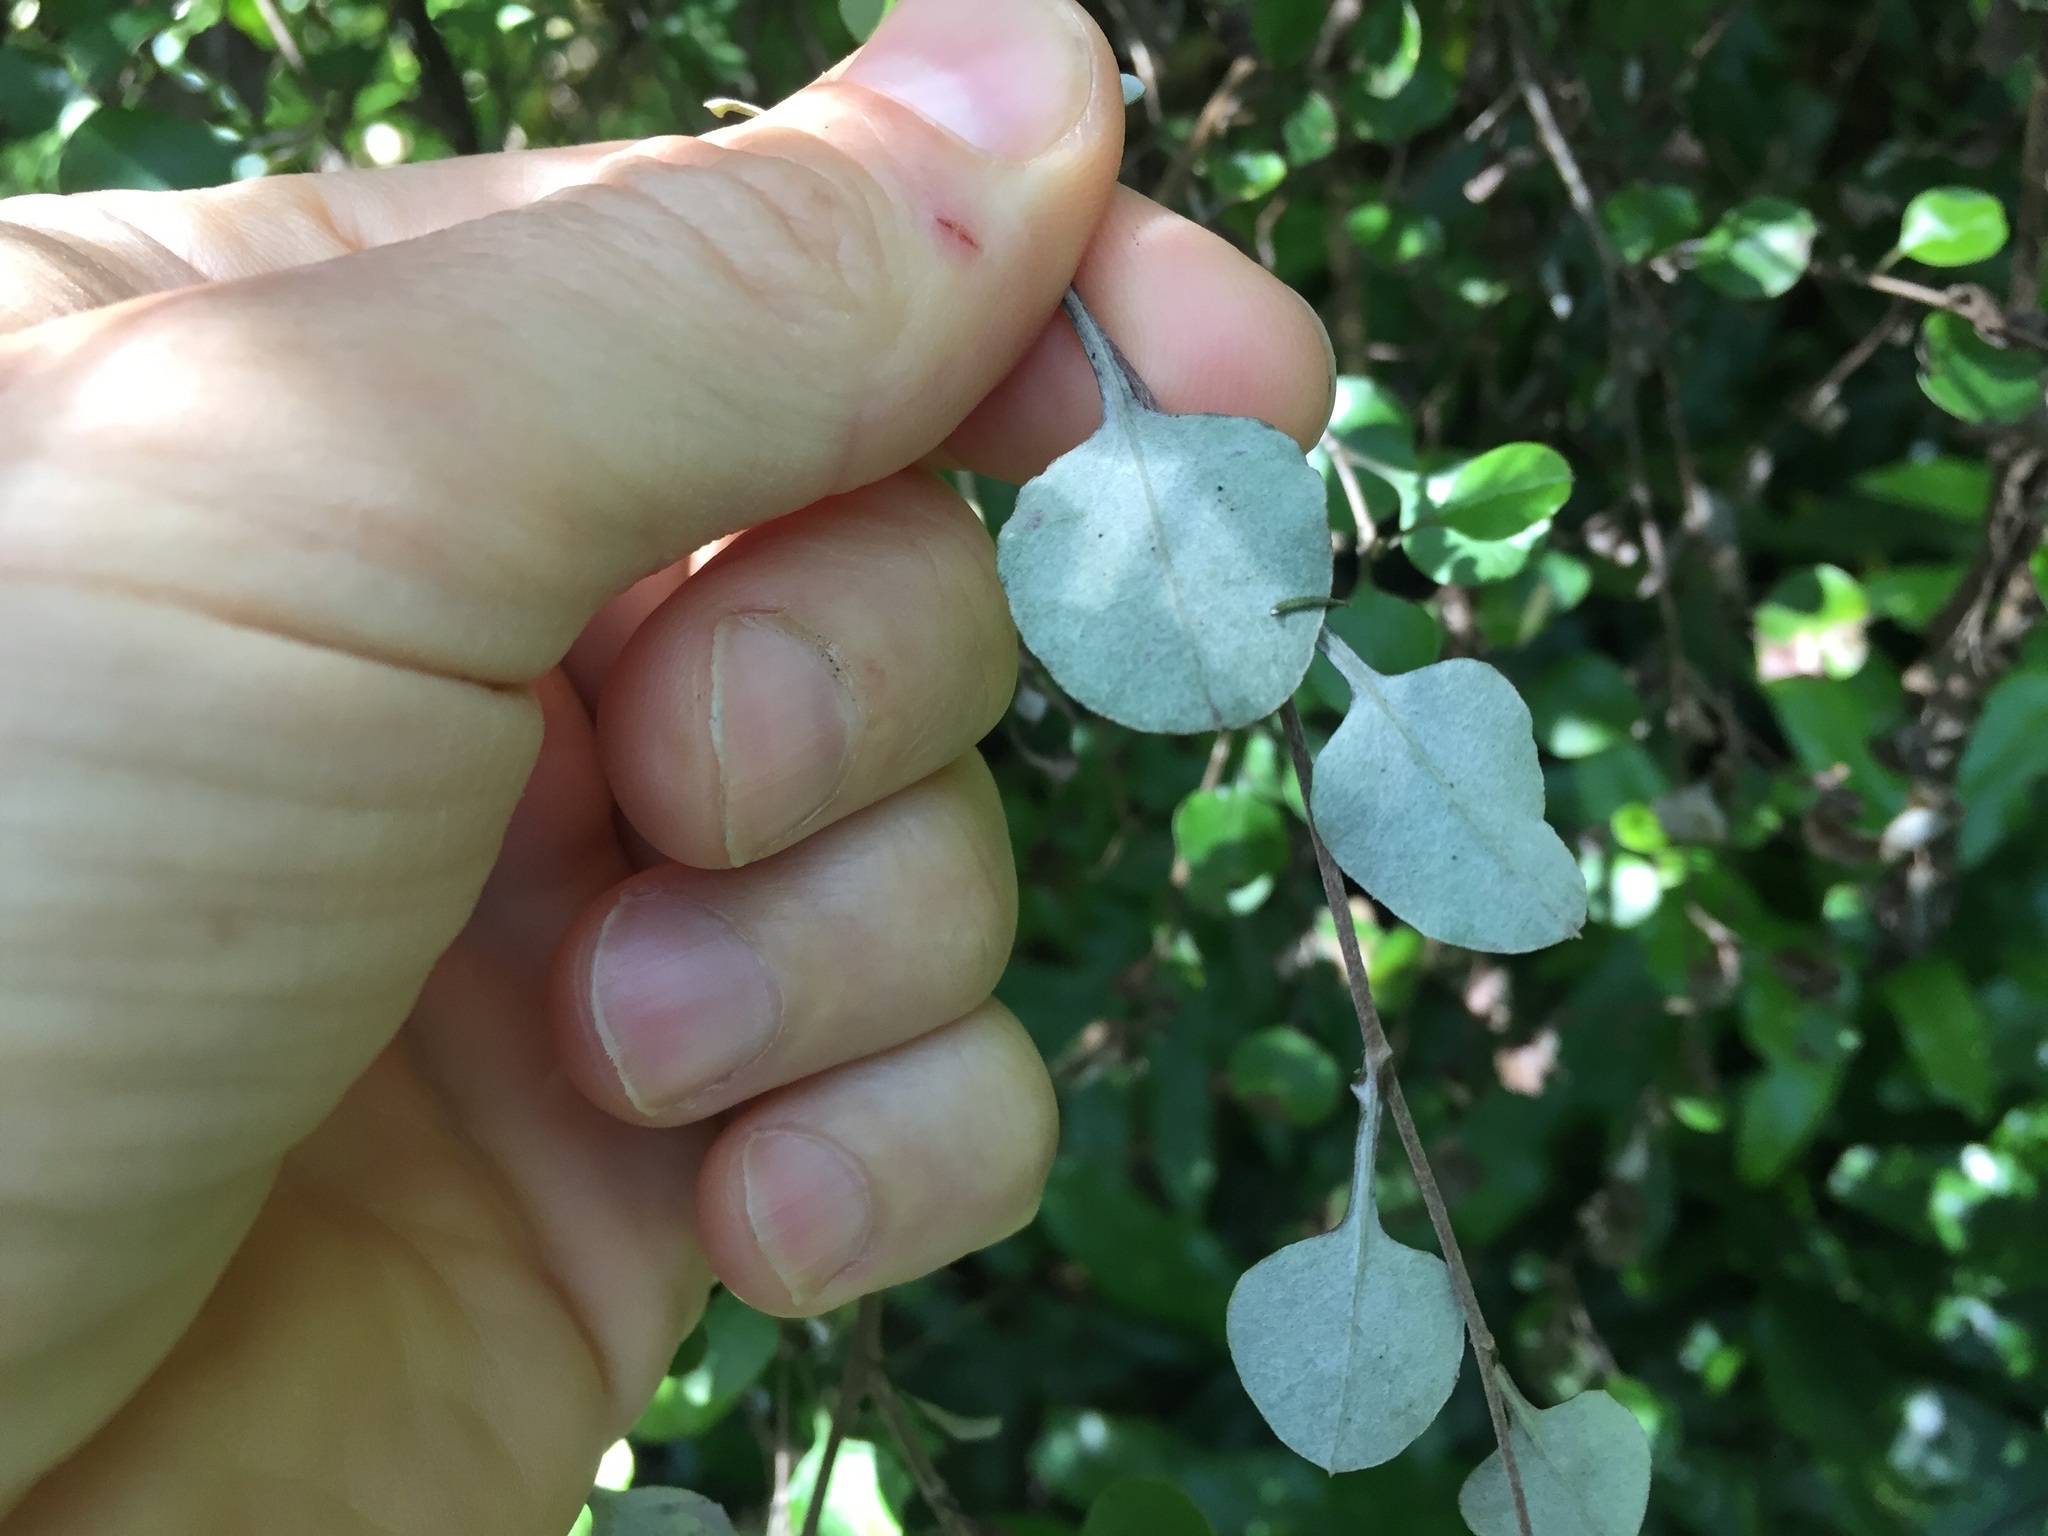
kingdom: Plantae
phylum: Tracheophyta
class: Magnoliopsida
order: Asterales
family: Asteraceae
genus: Ozothamnus
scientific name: Ozothamnus glomeratus
